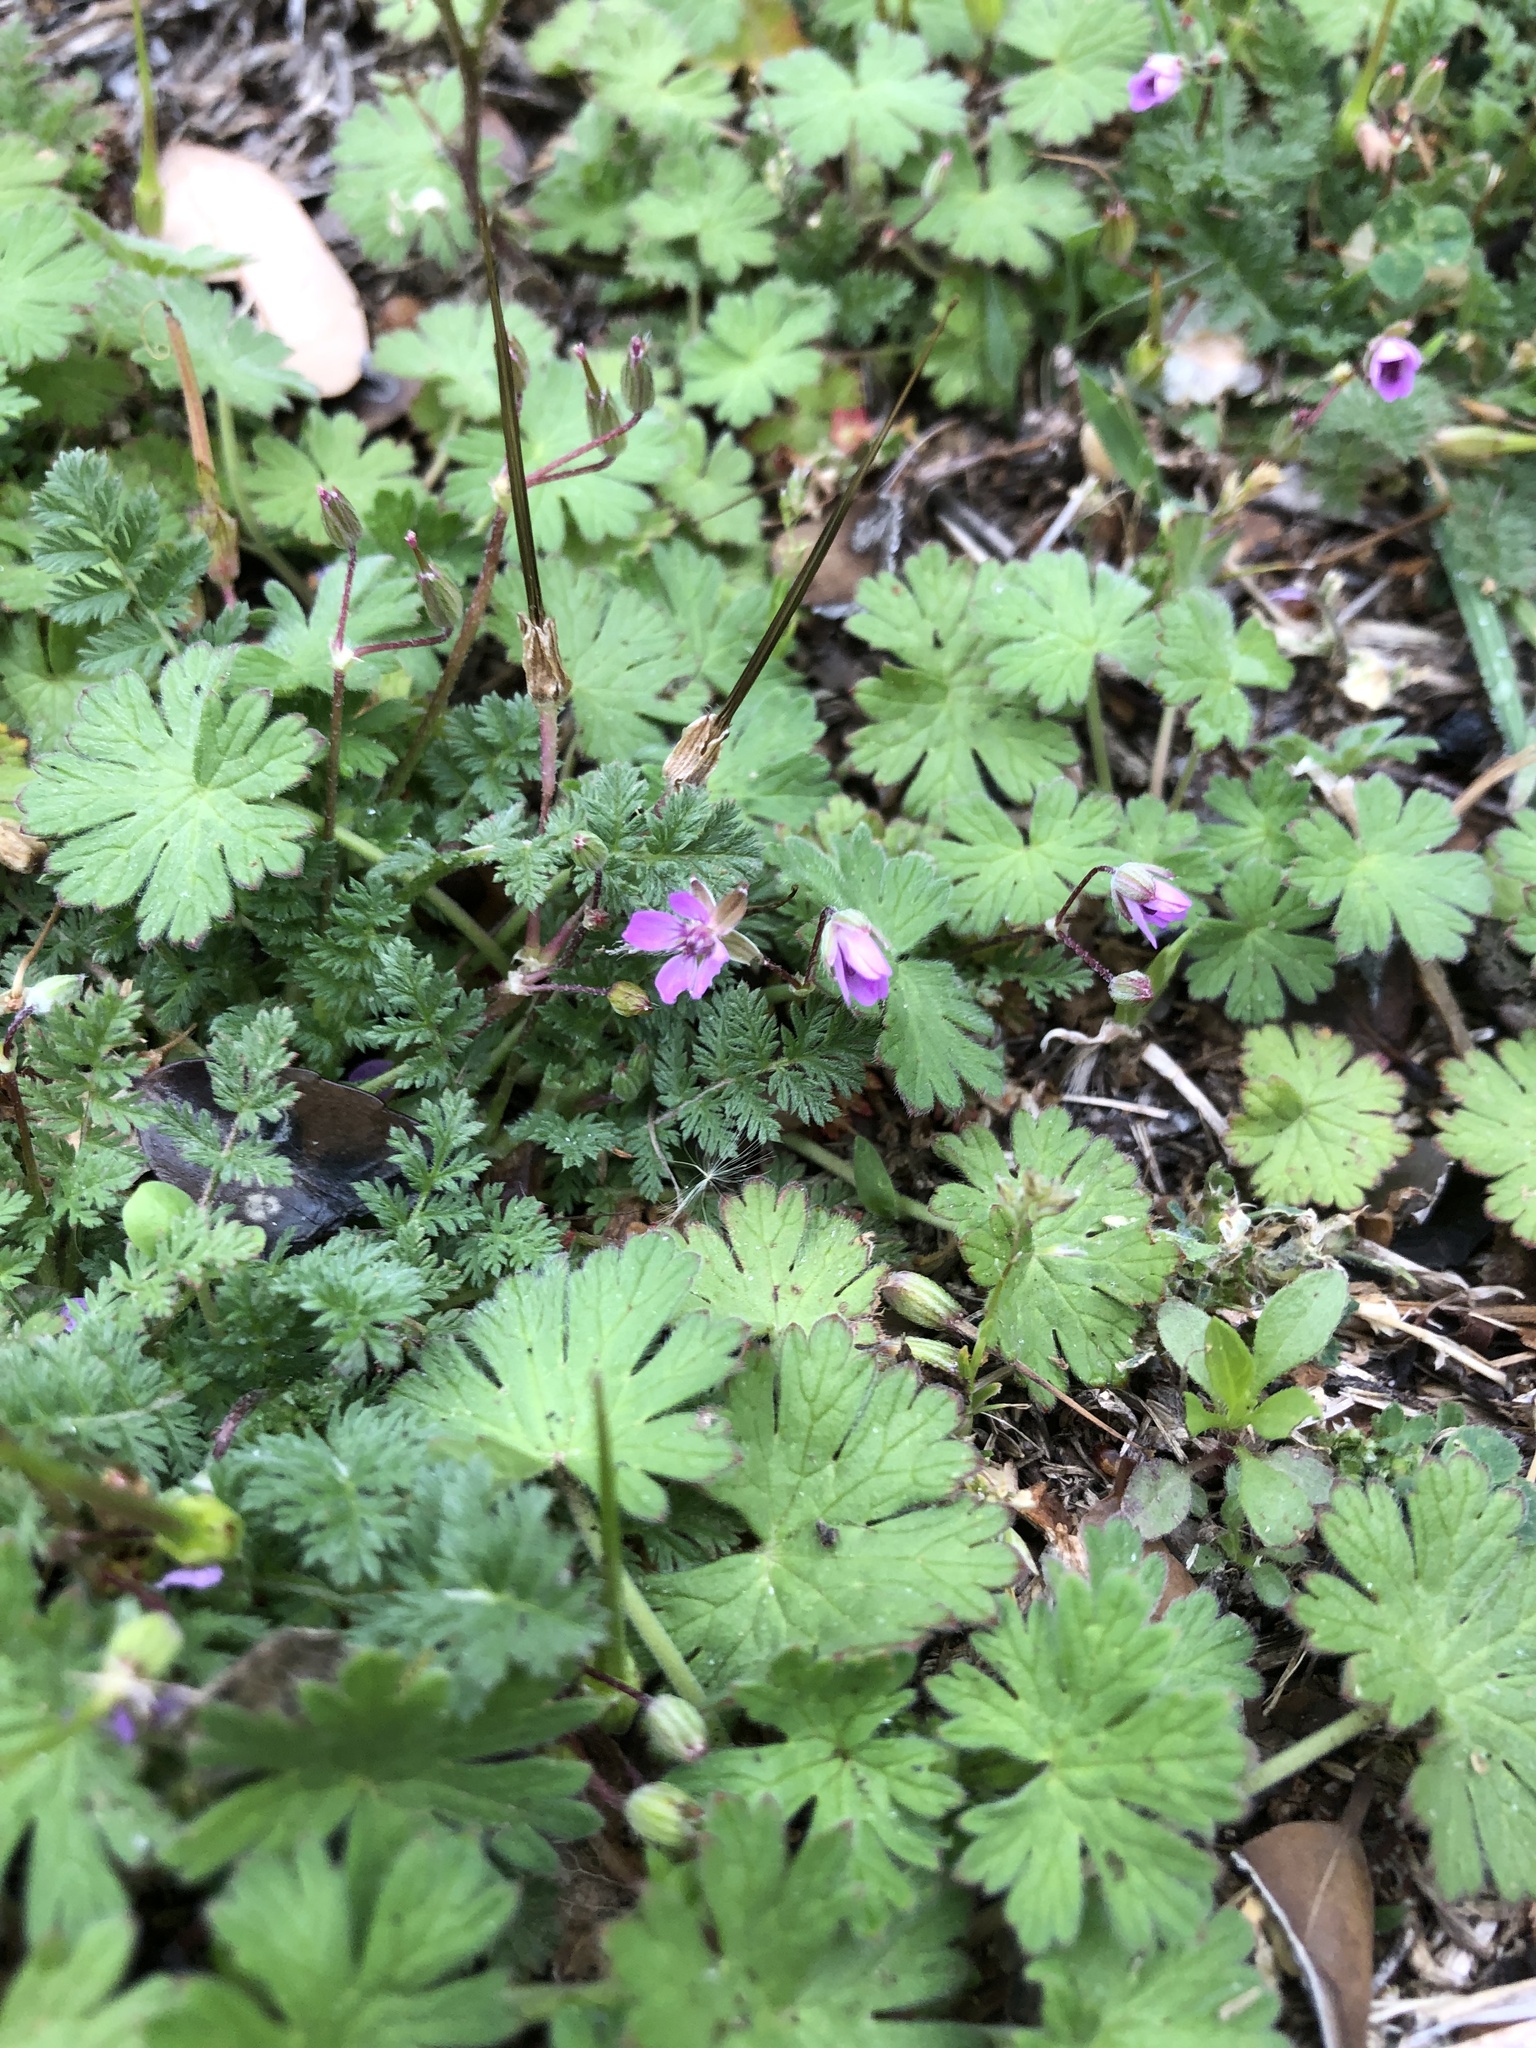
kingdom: Plantae
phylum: Tracheophyta
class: Magnoliopsida
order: Geraniales
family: Geraniaceae
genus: Erodium
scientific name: Erodium cicutarium
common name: Common stork's-bill
